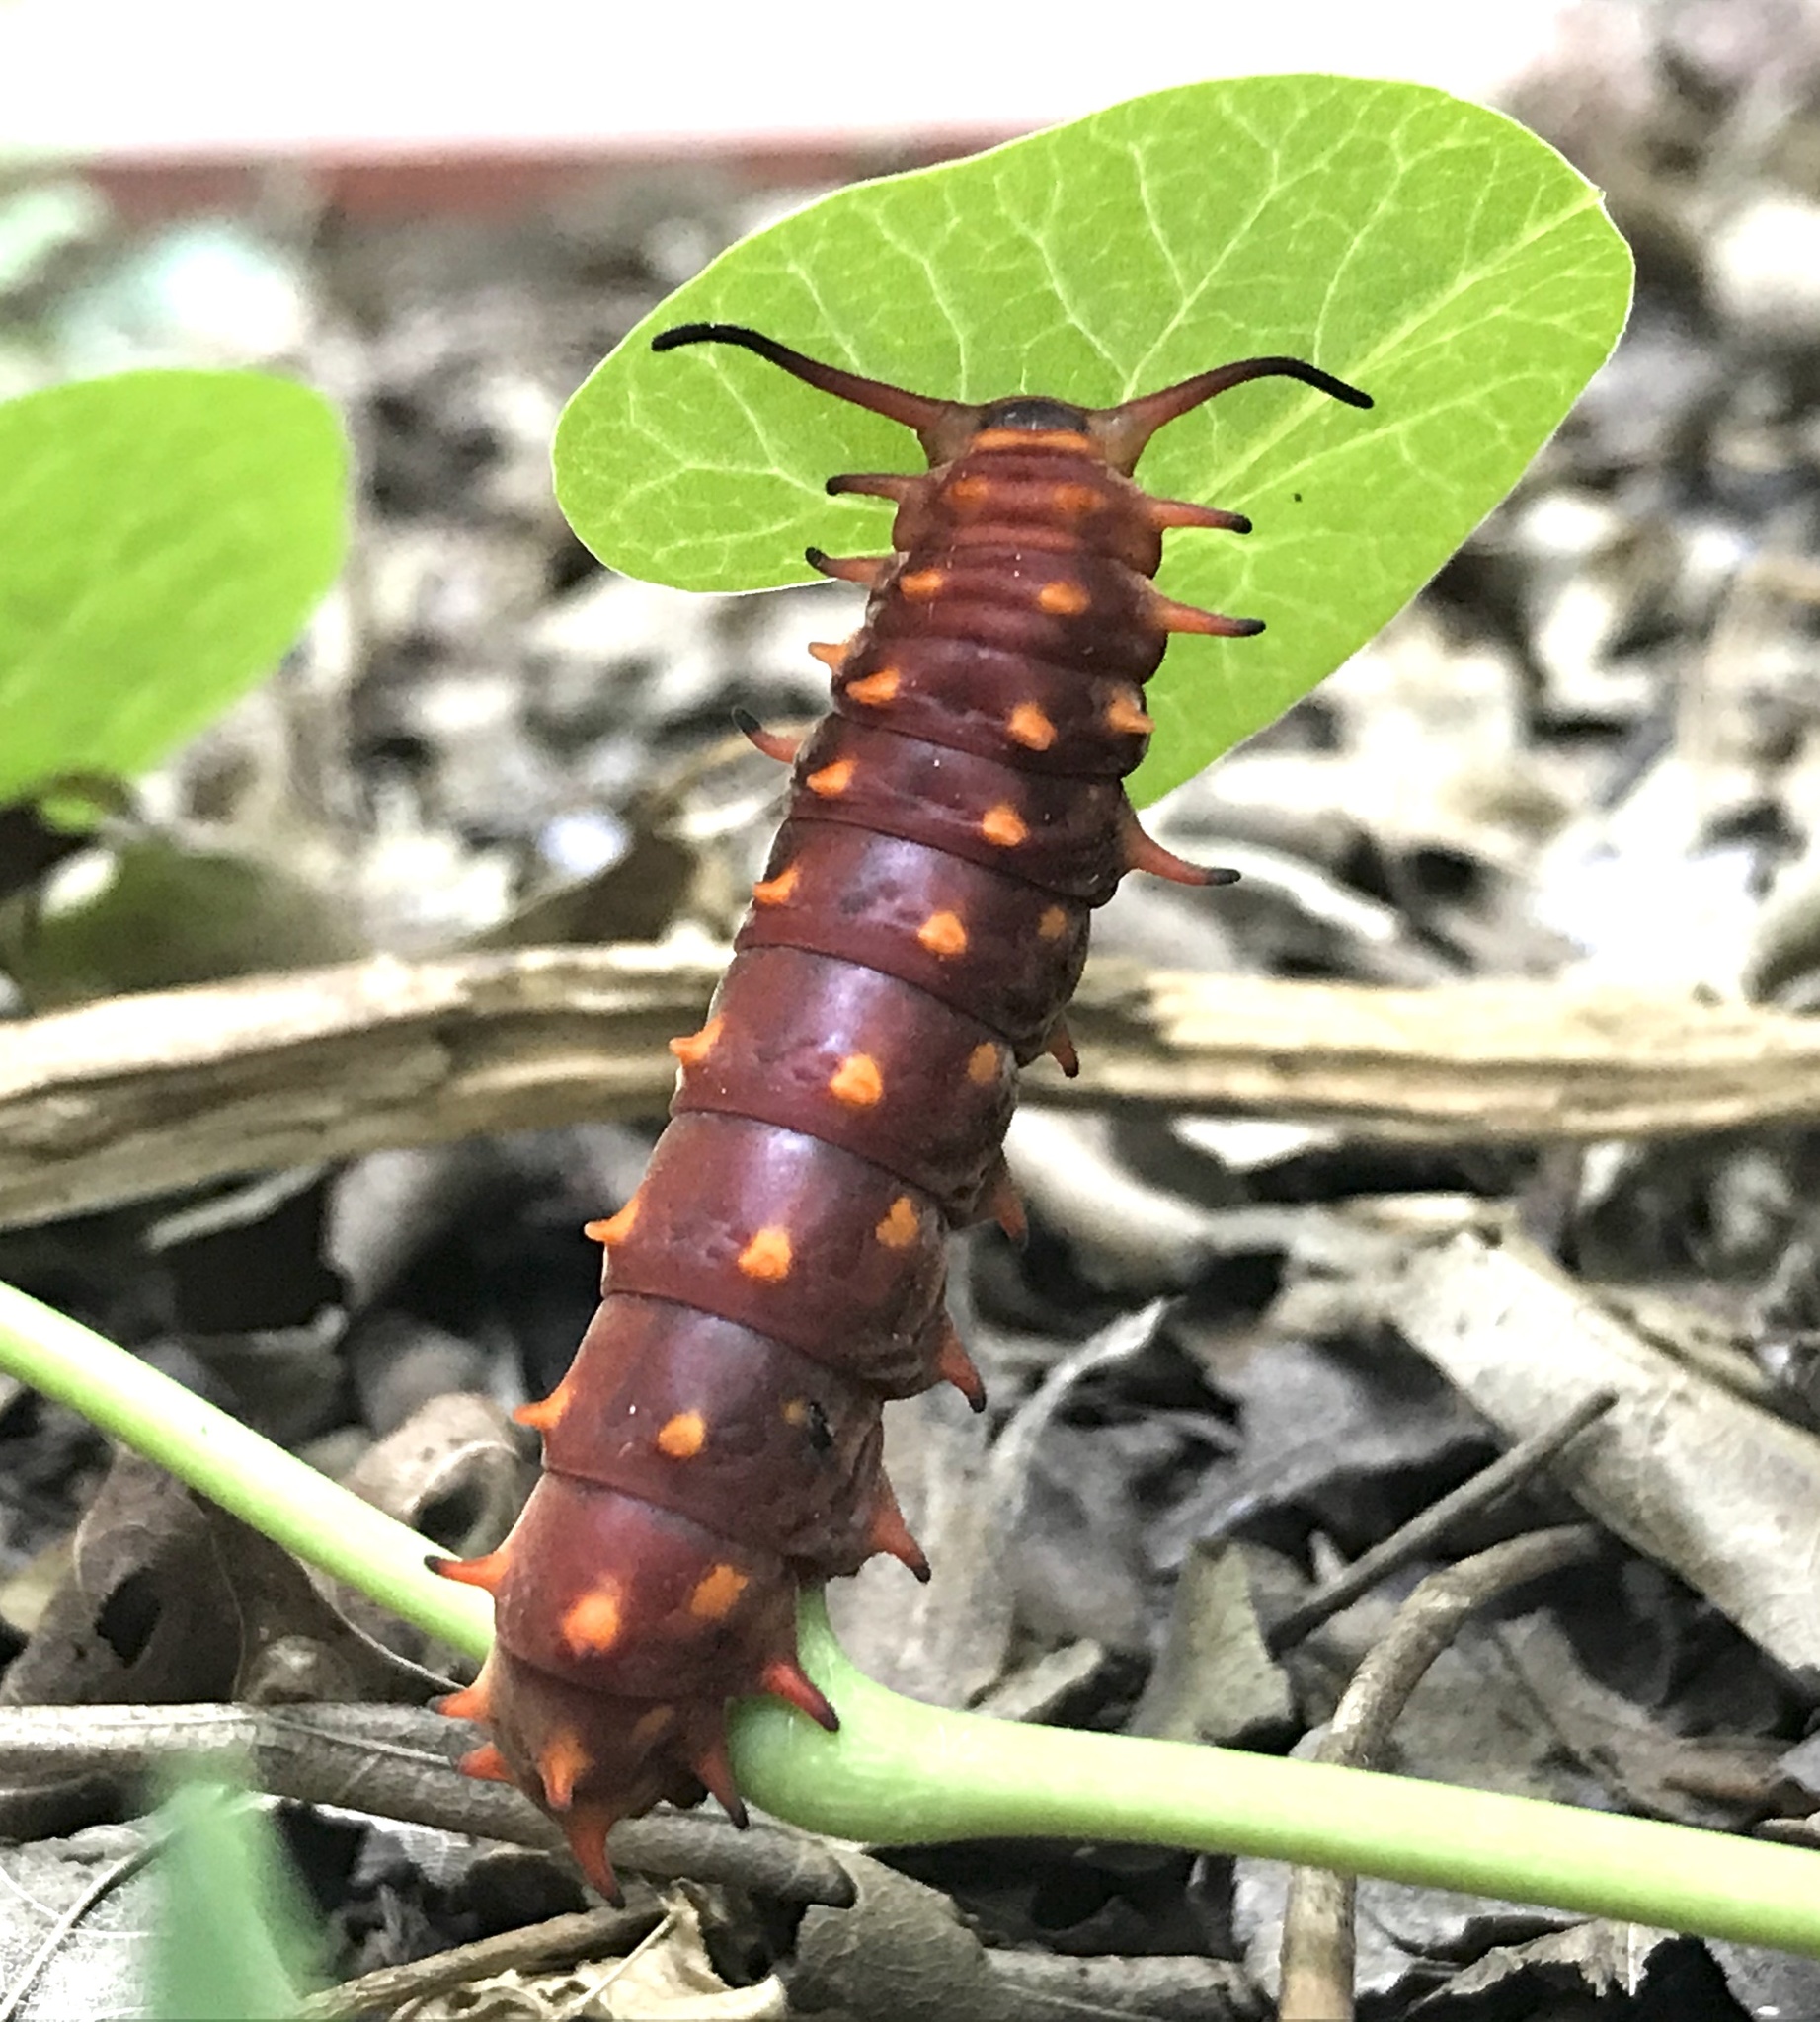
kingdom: Animalia
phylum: Arthropoda
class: Insecta
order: Lepidoptera
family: Papilionidae
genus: Battus
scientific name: Battus philenor
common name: Pipevine swallowtail
